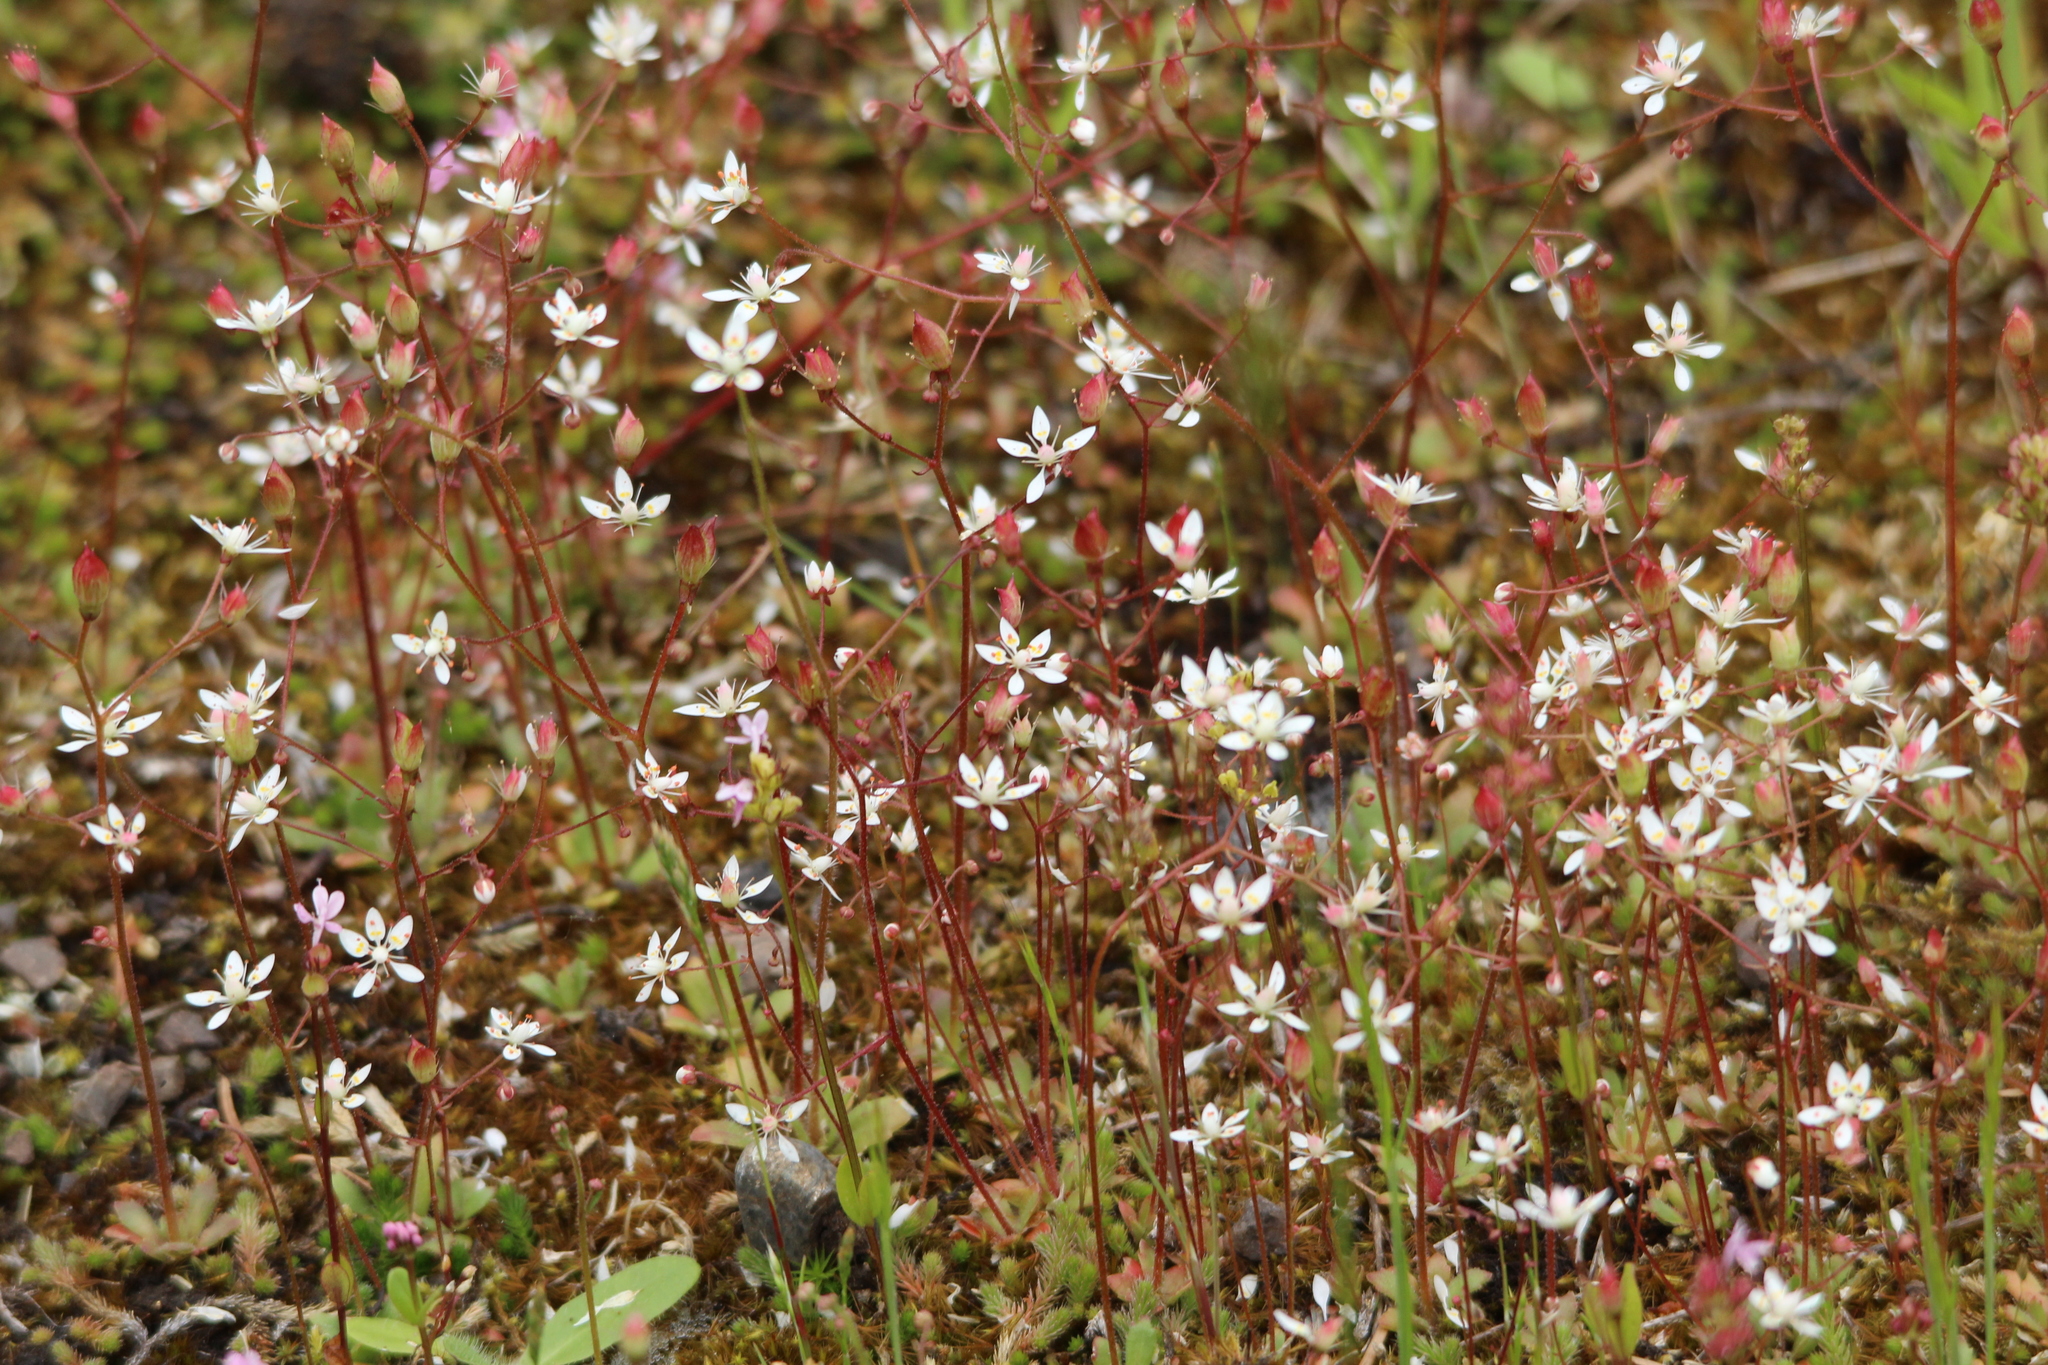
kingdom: Plantae
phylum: Tracheophyta
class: Magnoliopsida
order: Saxifragales
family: Saxifragaceae
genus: Micranthes
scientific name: Micranthes ferruginea
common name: Rusty saxifrage
